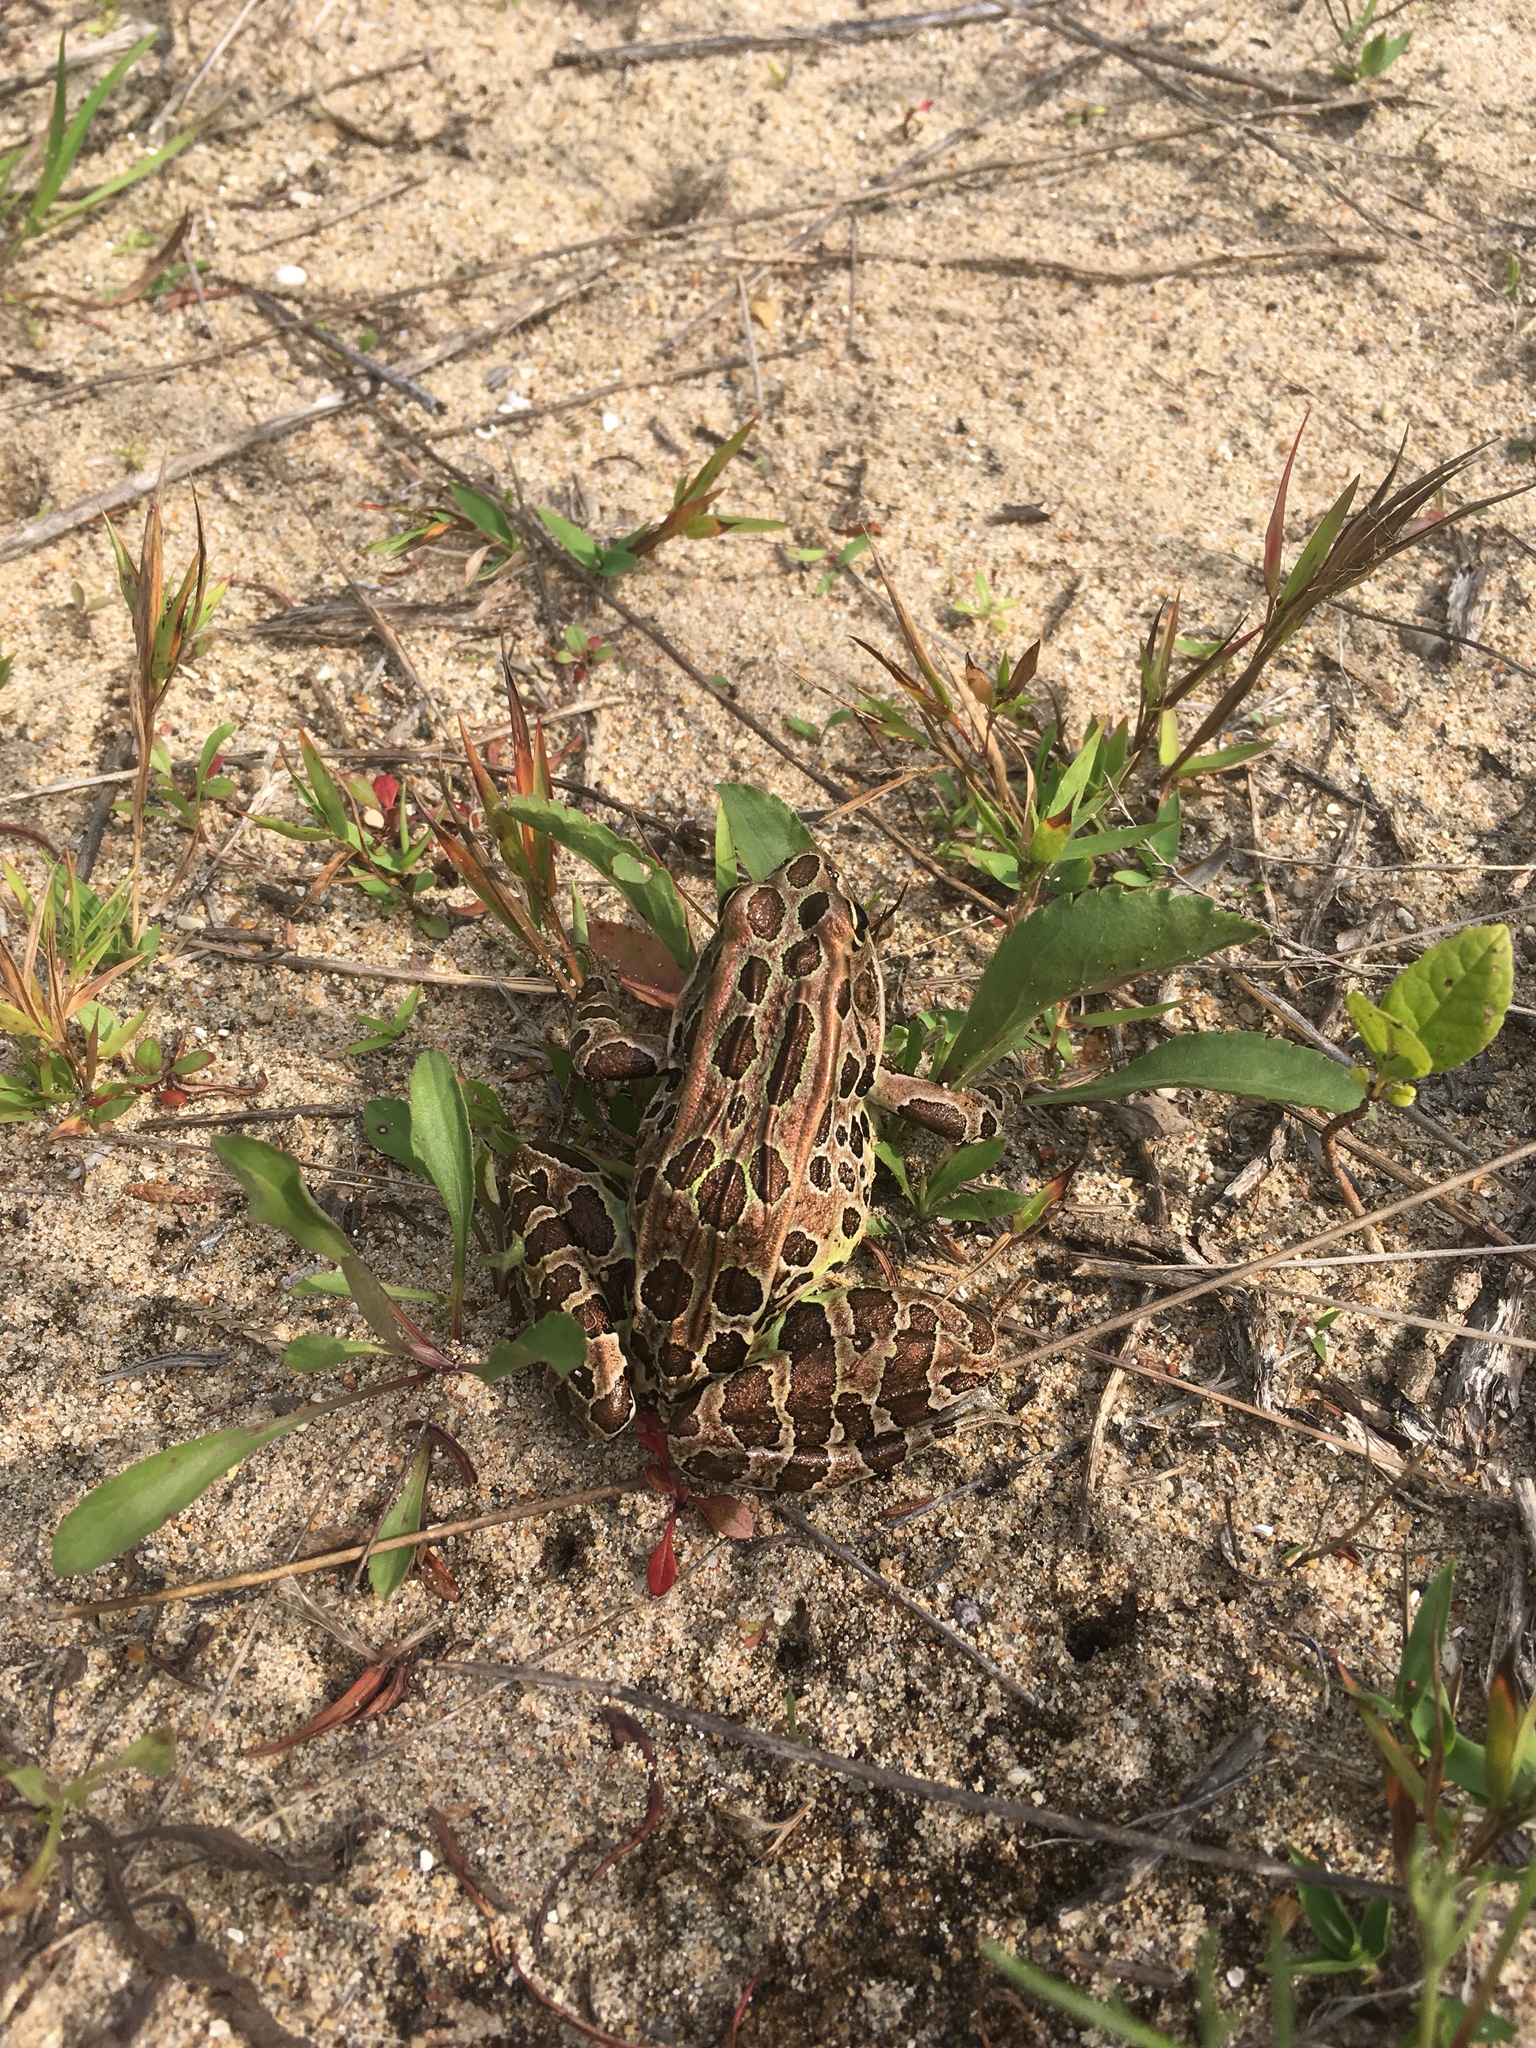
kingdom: Animalia
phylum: Chordata
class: Amphibia
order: Anura
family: Ranidae
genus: Lithobates
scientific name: Lithobates pipiens
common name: Northern leopard frog
